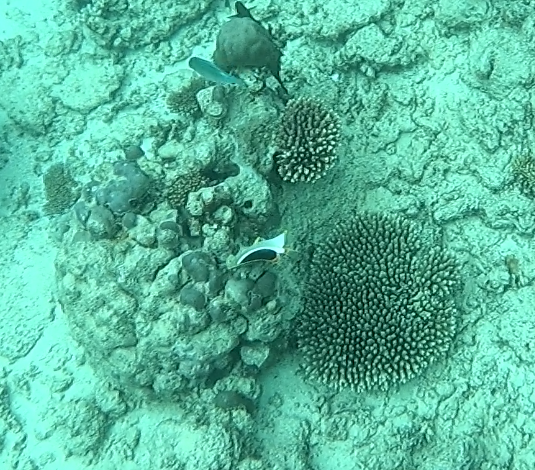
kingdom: Animalia
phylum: Chordata
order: Perciformes
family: Chaetodontidae
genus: Chaetodon
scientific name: Chaetodon ephippium
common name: Saddled butterflyfish
